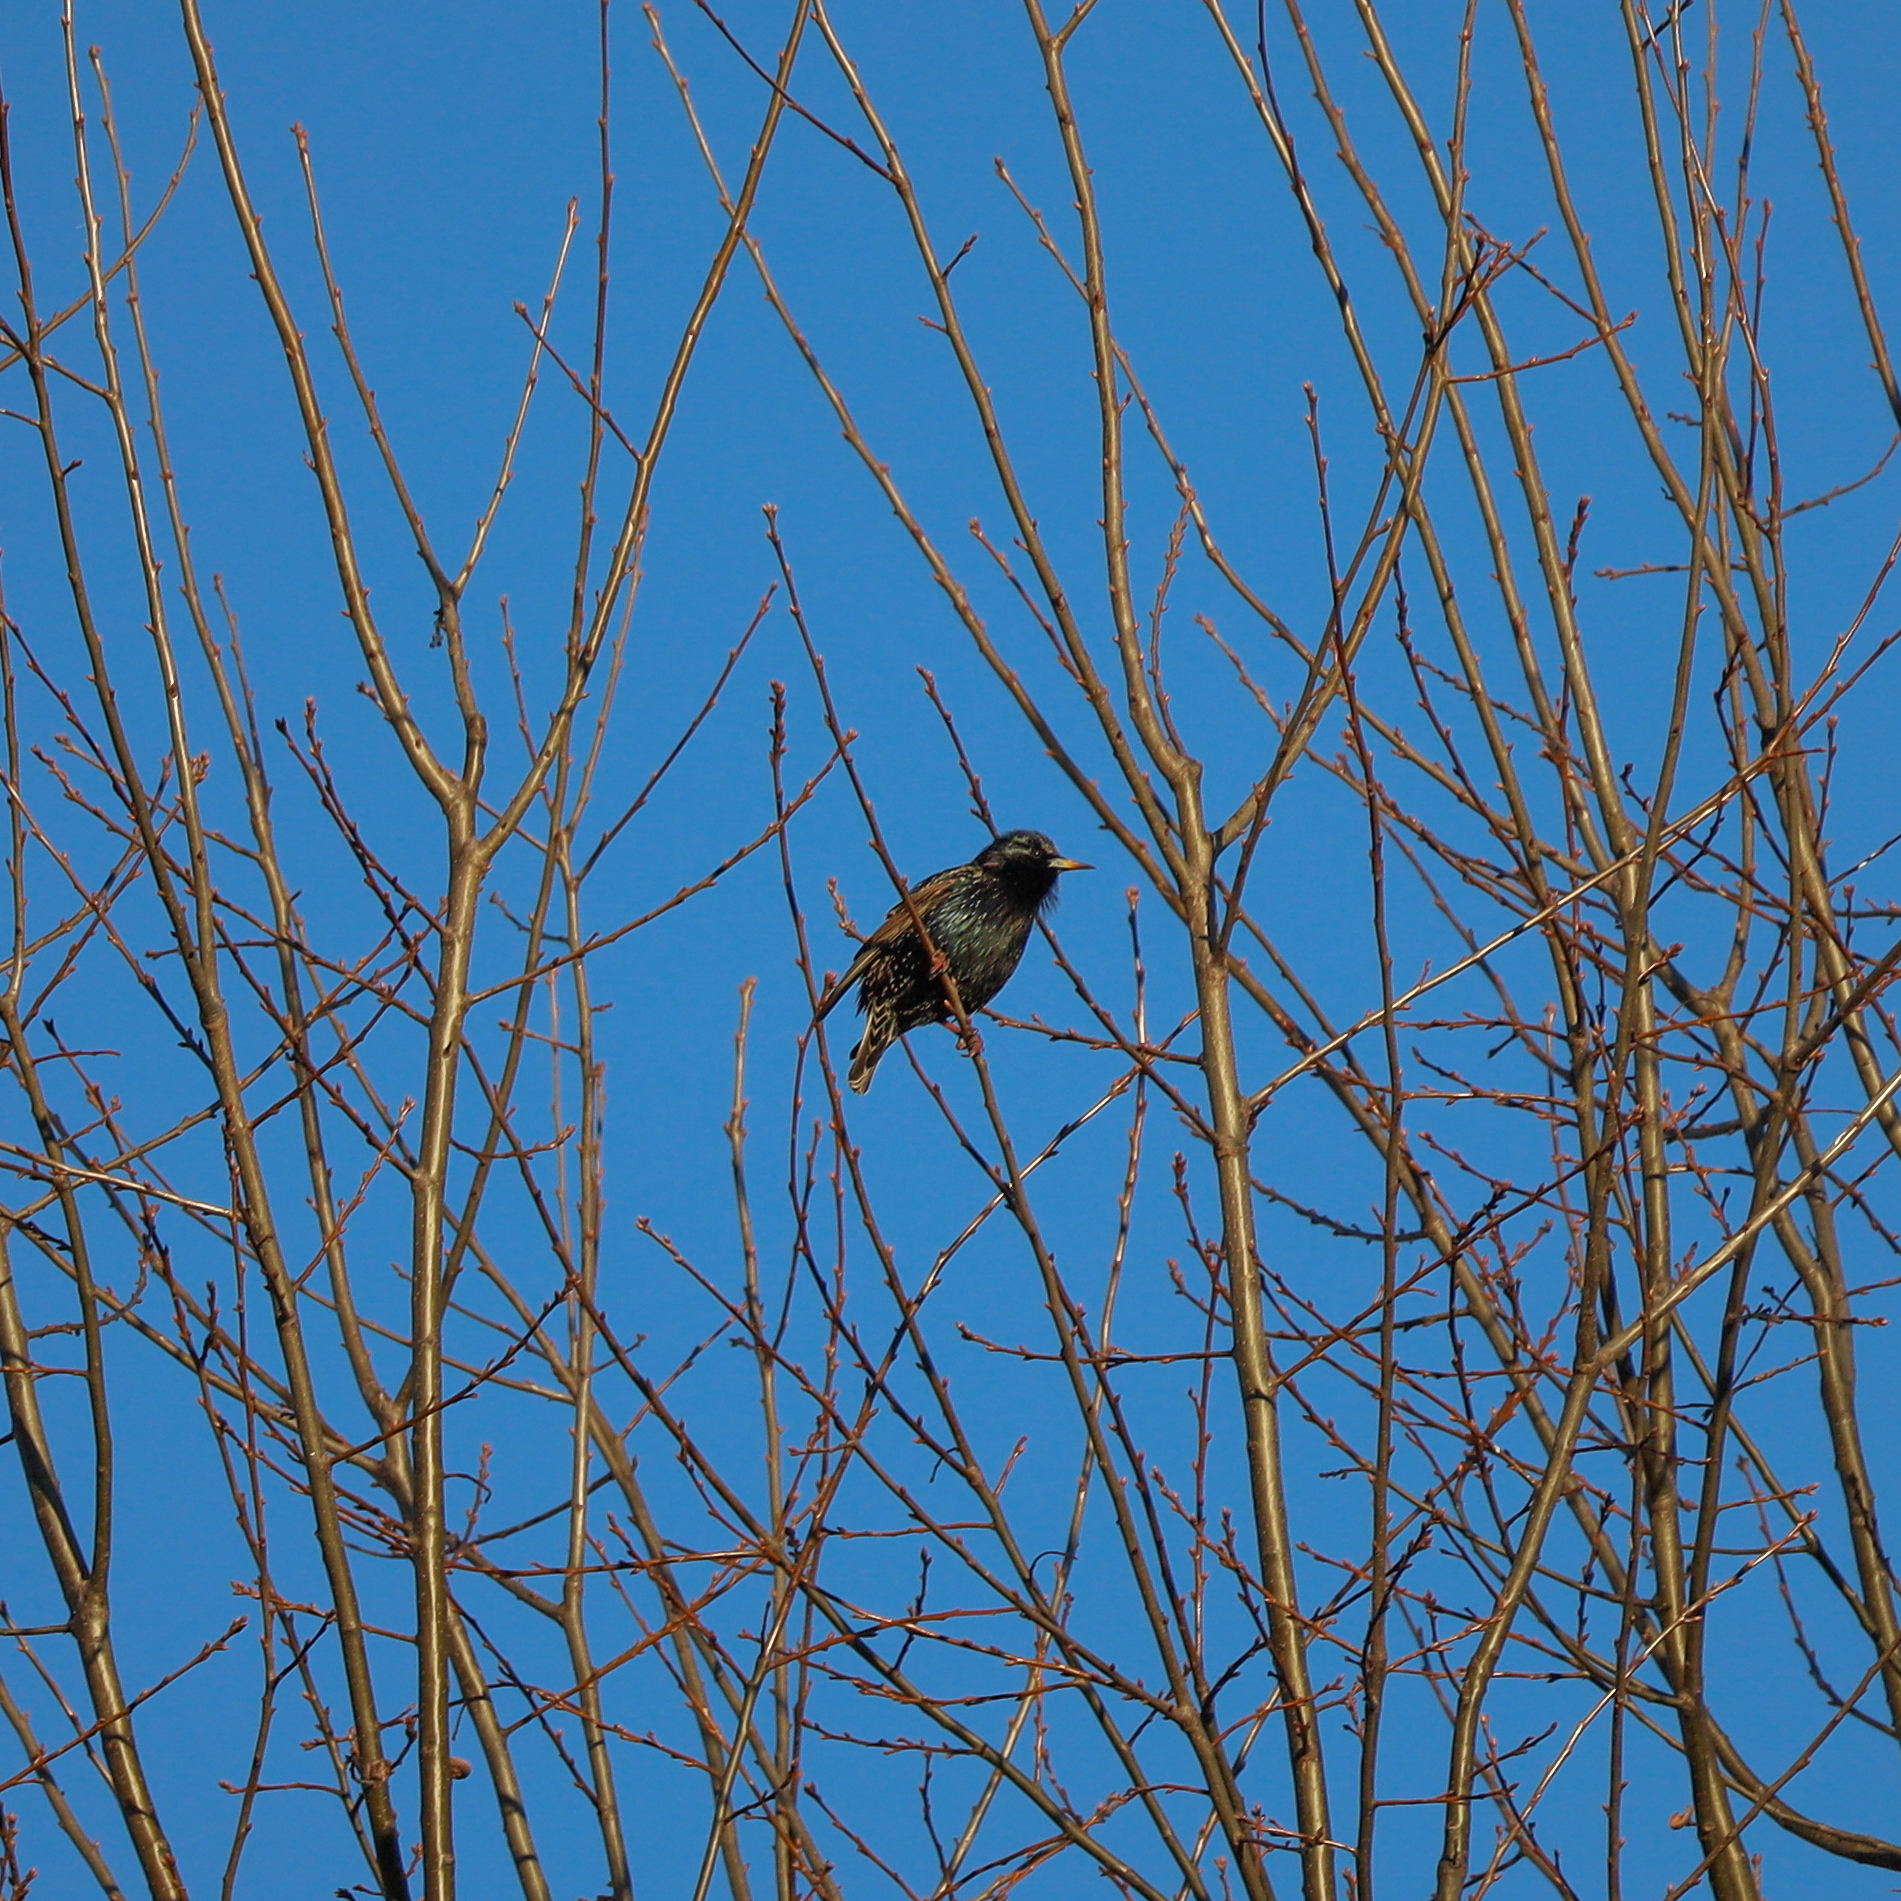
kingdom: Animalia
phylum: Chordata
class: Aves
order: Passeriformes
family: Sturnidae
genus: Sturnus
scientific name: Sturnus vulgaris
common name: Common starling
